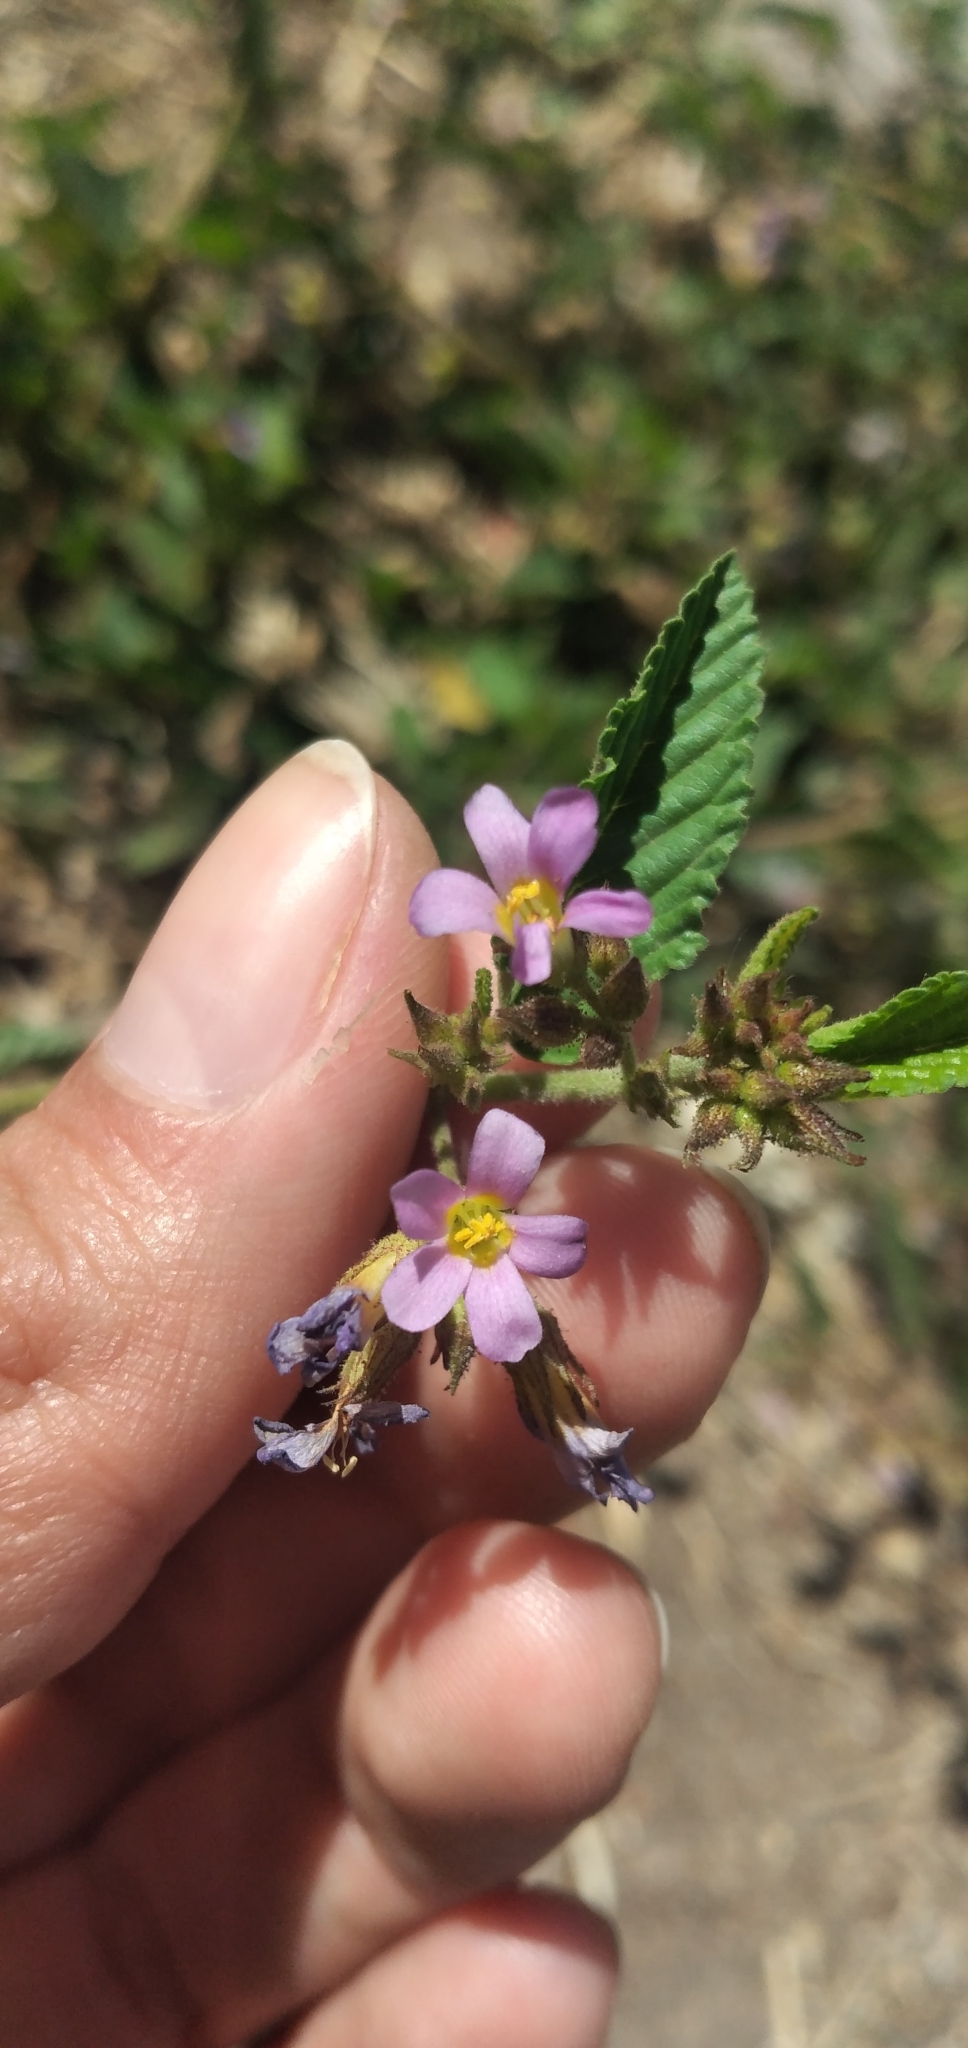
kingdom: Plantae
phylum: Tracheophyta
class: Magnoliopsida
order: Malvales
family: Malvaceae
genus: Melochia
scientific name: Melochia pyramidata
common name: Pyramidflower
